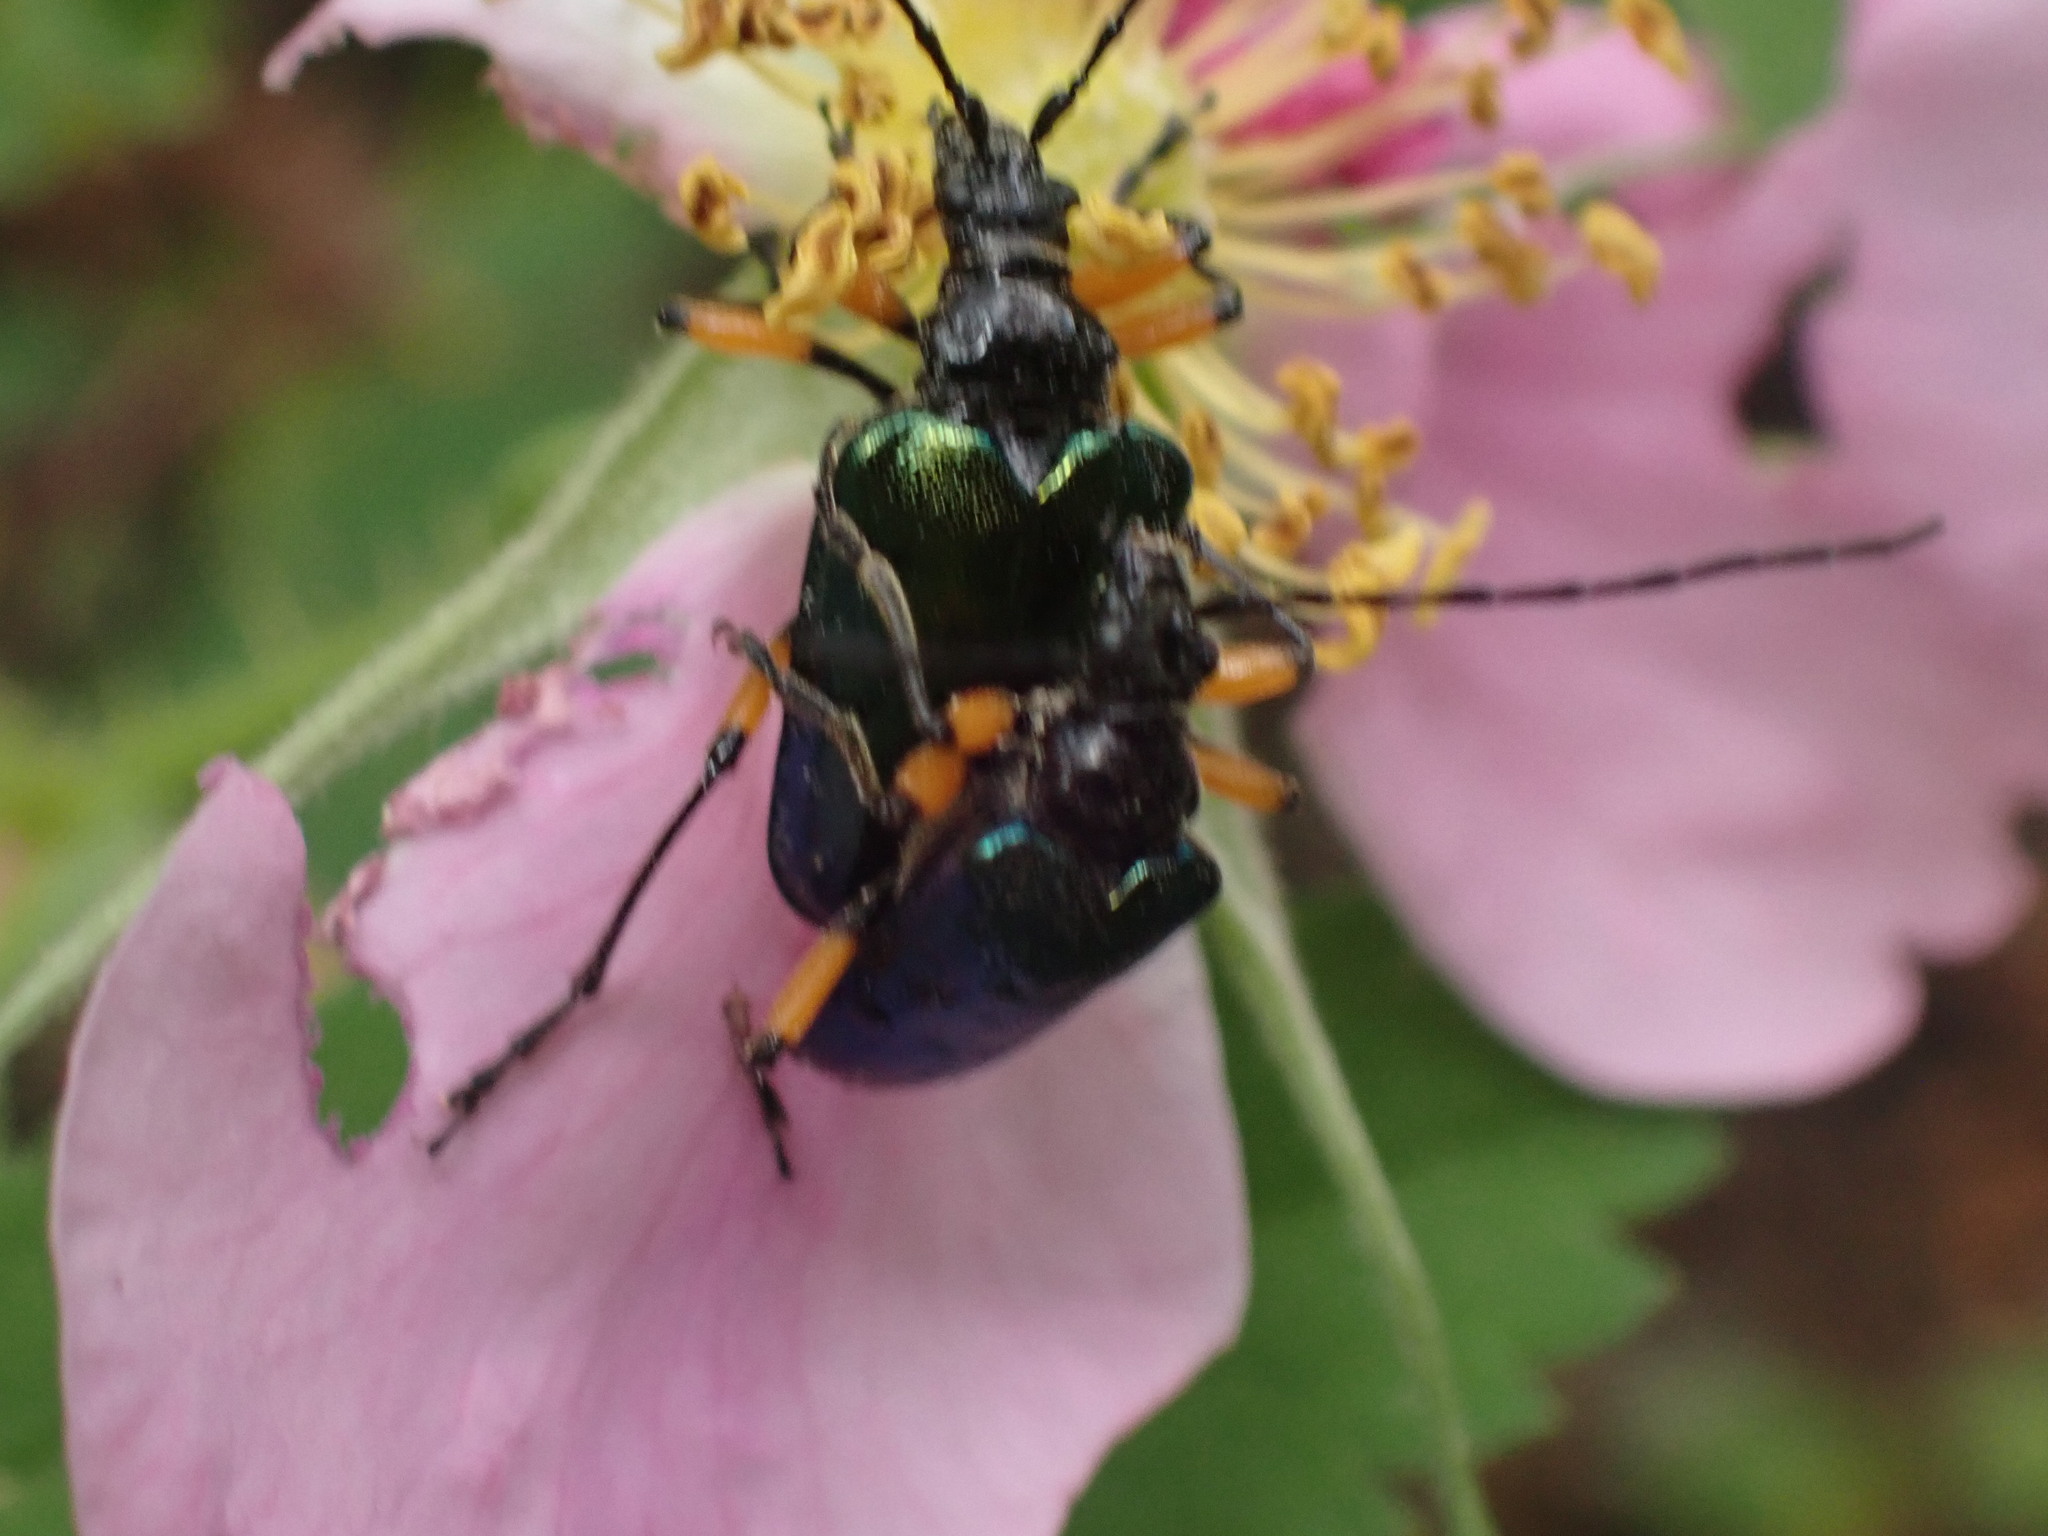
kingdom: Animalia
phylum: Arthropoda
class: Insecta
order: Coleoptera
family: Cerambycidae
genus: Pseudogaurotina
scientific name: Pseudogaurotina cressoni
